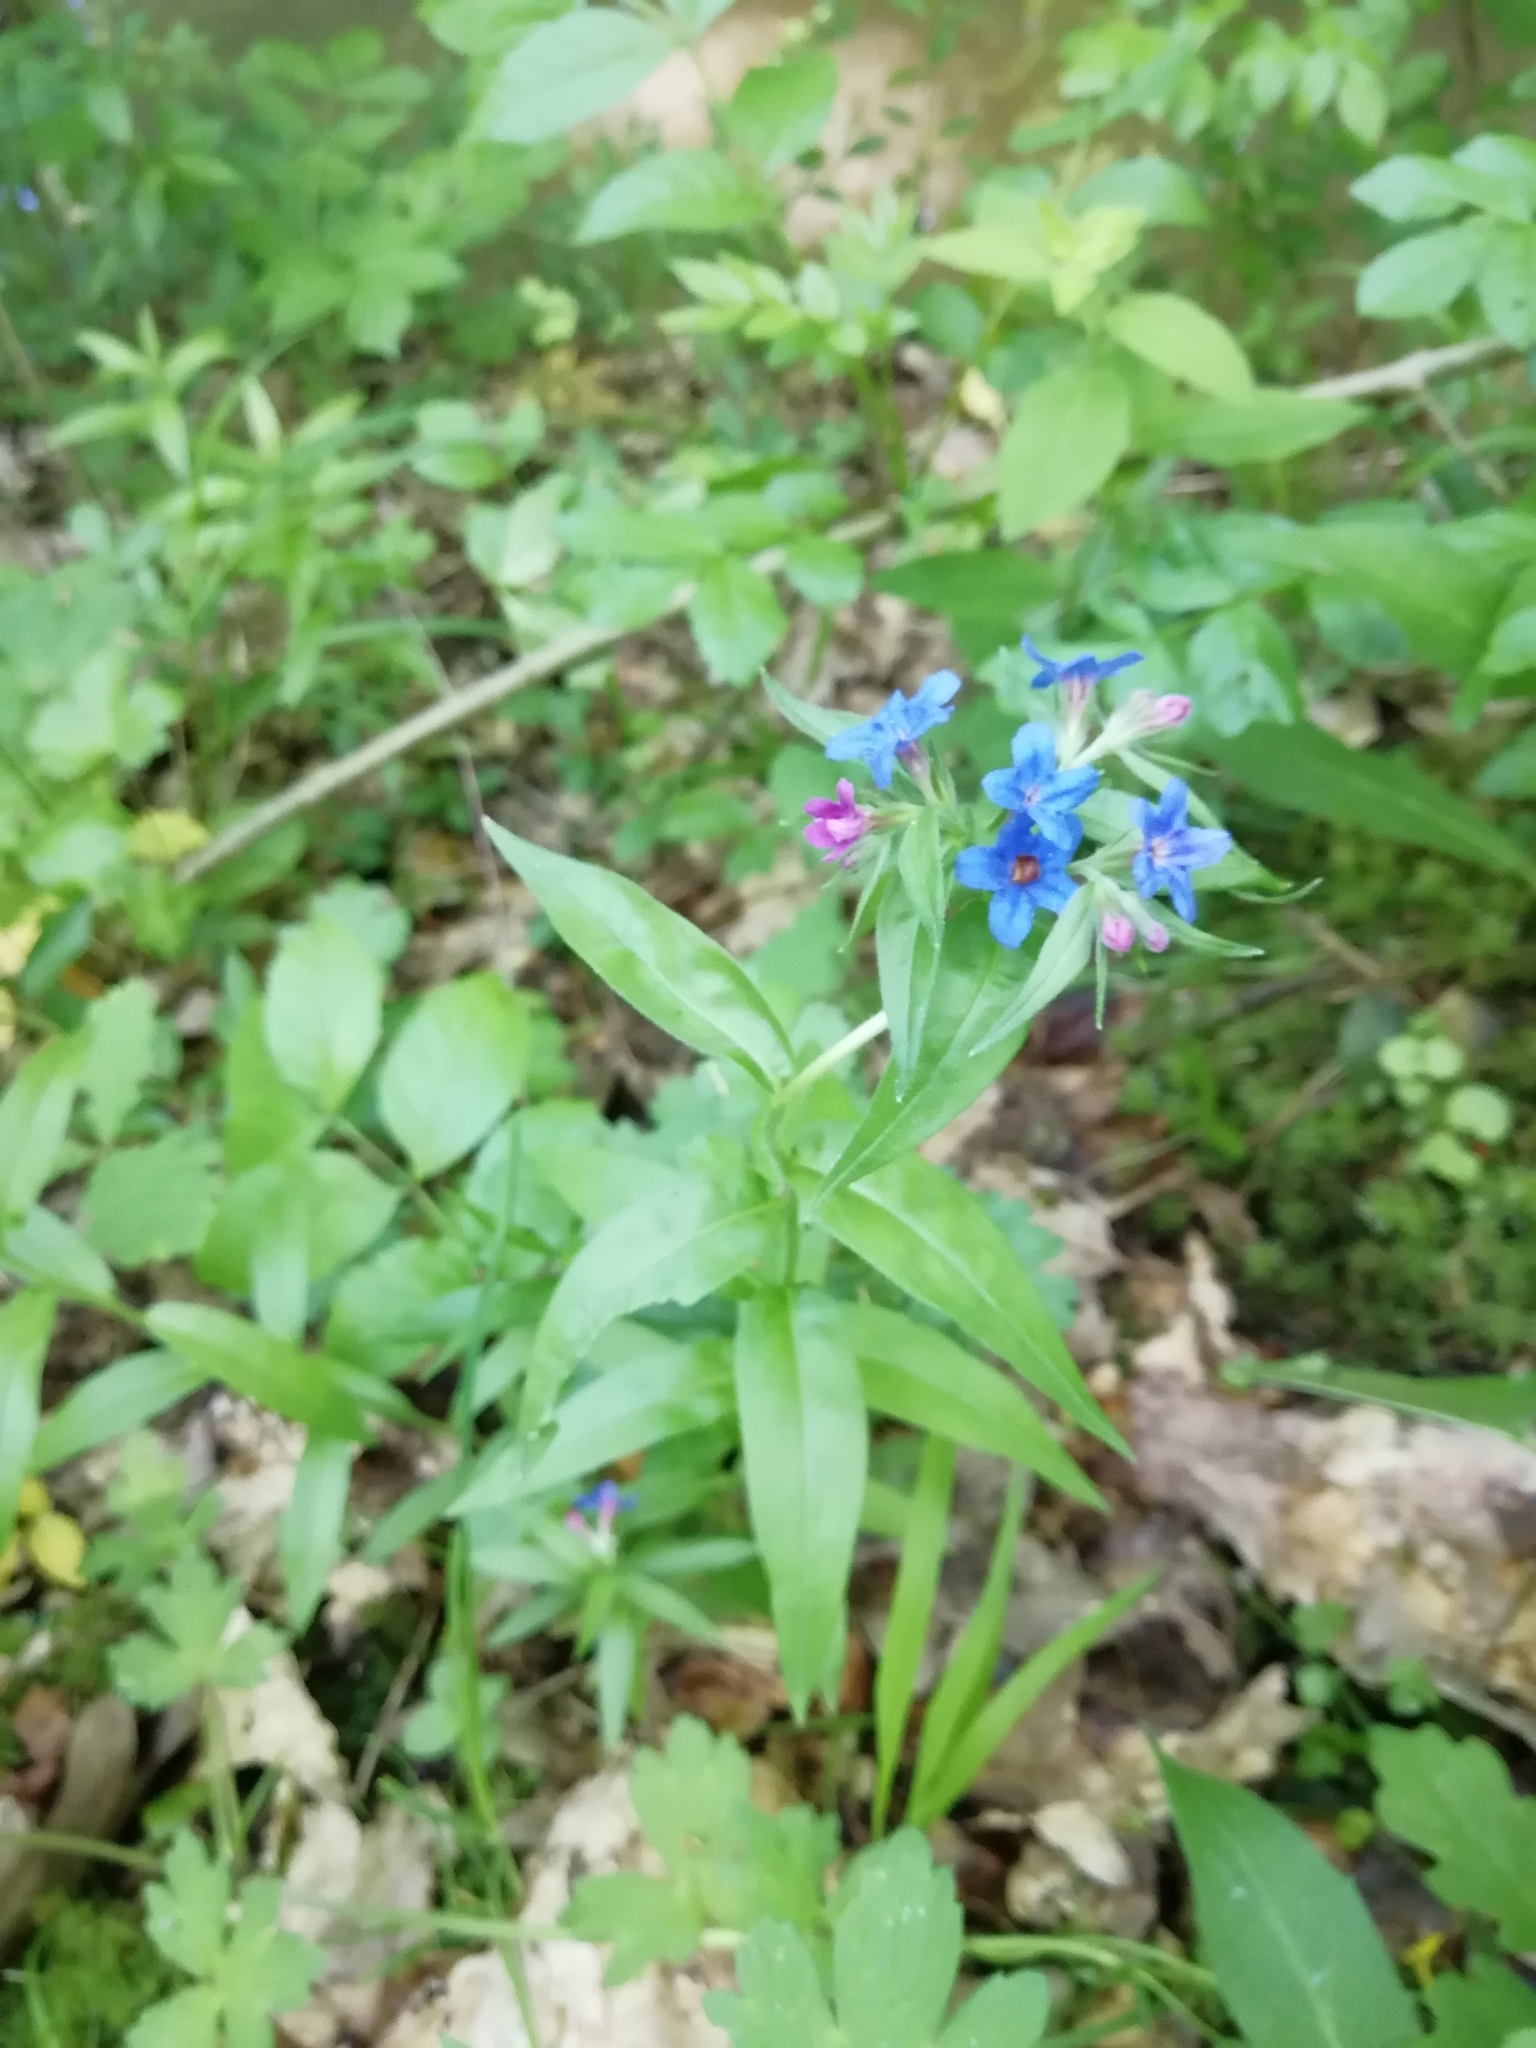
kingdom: Plantae
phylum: Tracheophyta
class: Magnoliopsida
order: Boraginales
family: Boraginaceae
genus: Aegonychon
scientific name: Aegonychon purpurocaeruleum
